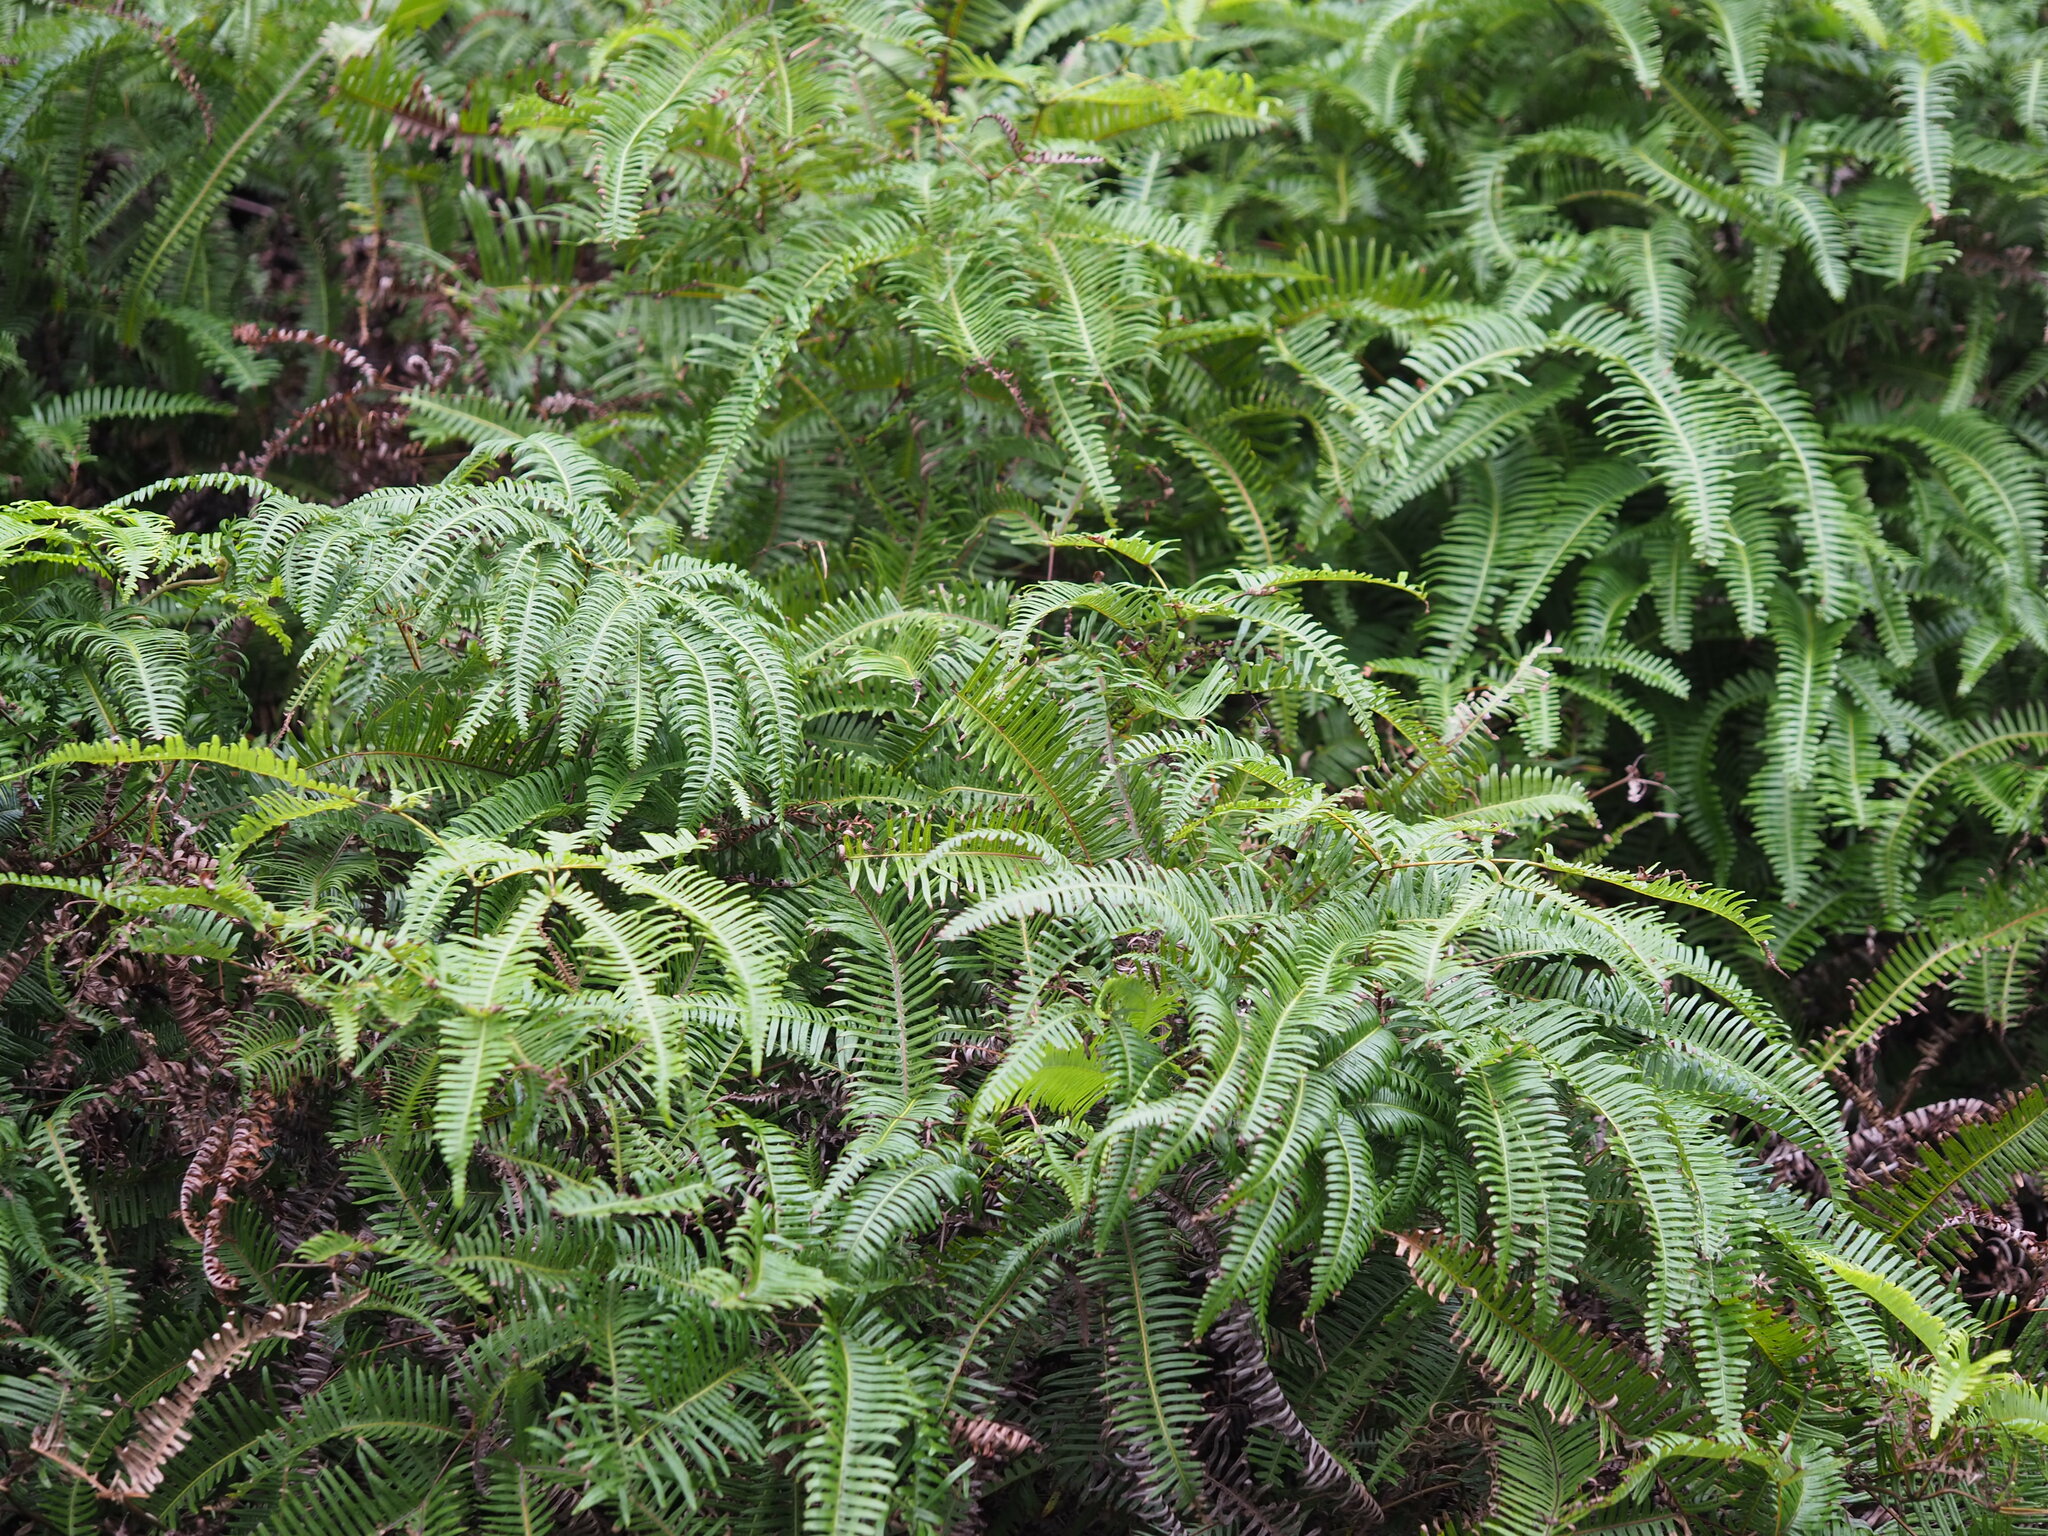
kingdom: Plantae
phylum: Tracheophyta
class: Polypodiopsida
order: Gleicheniales
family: Gleicheniaceae
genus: Dicranopteris
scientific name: Dicranopteris linearis
